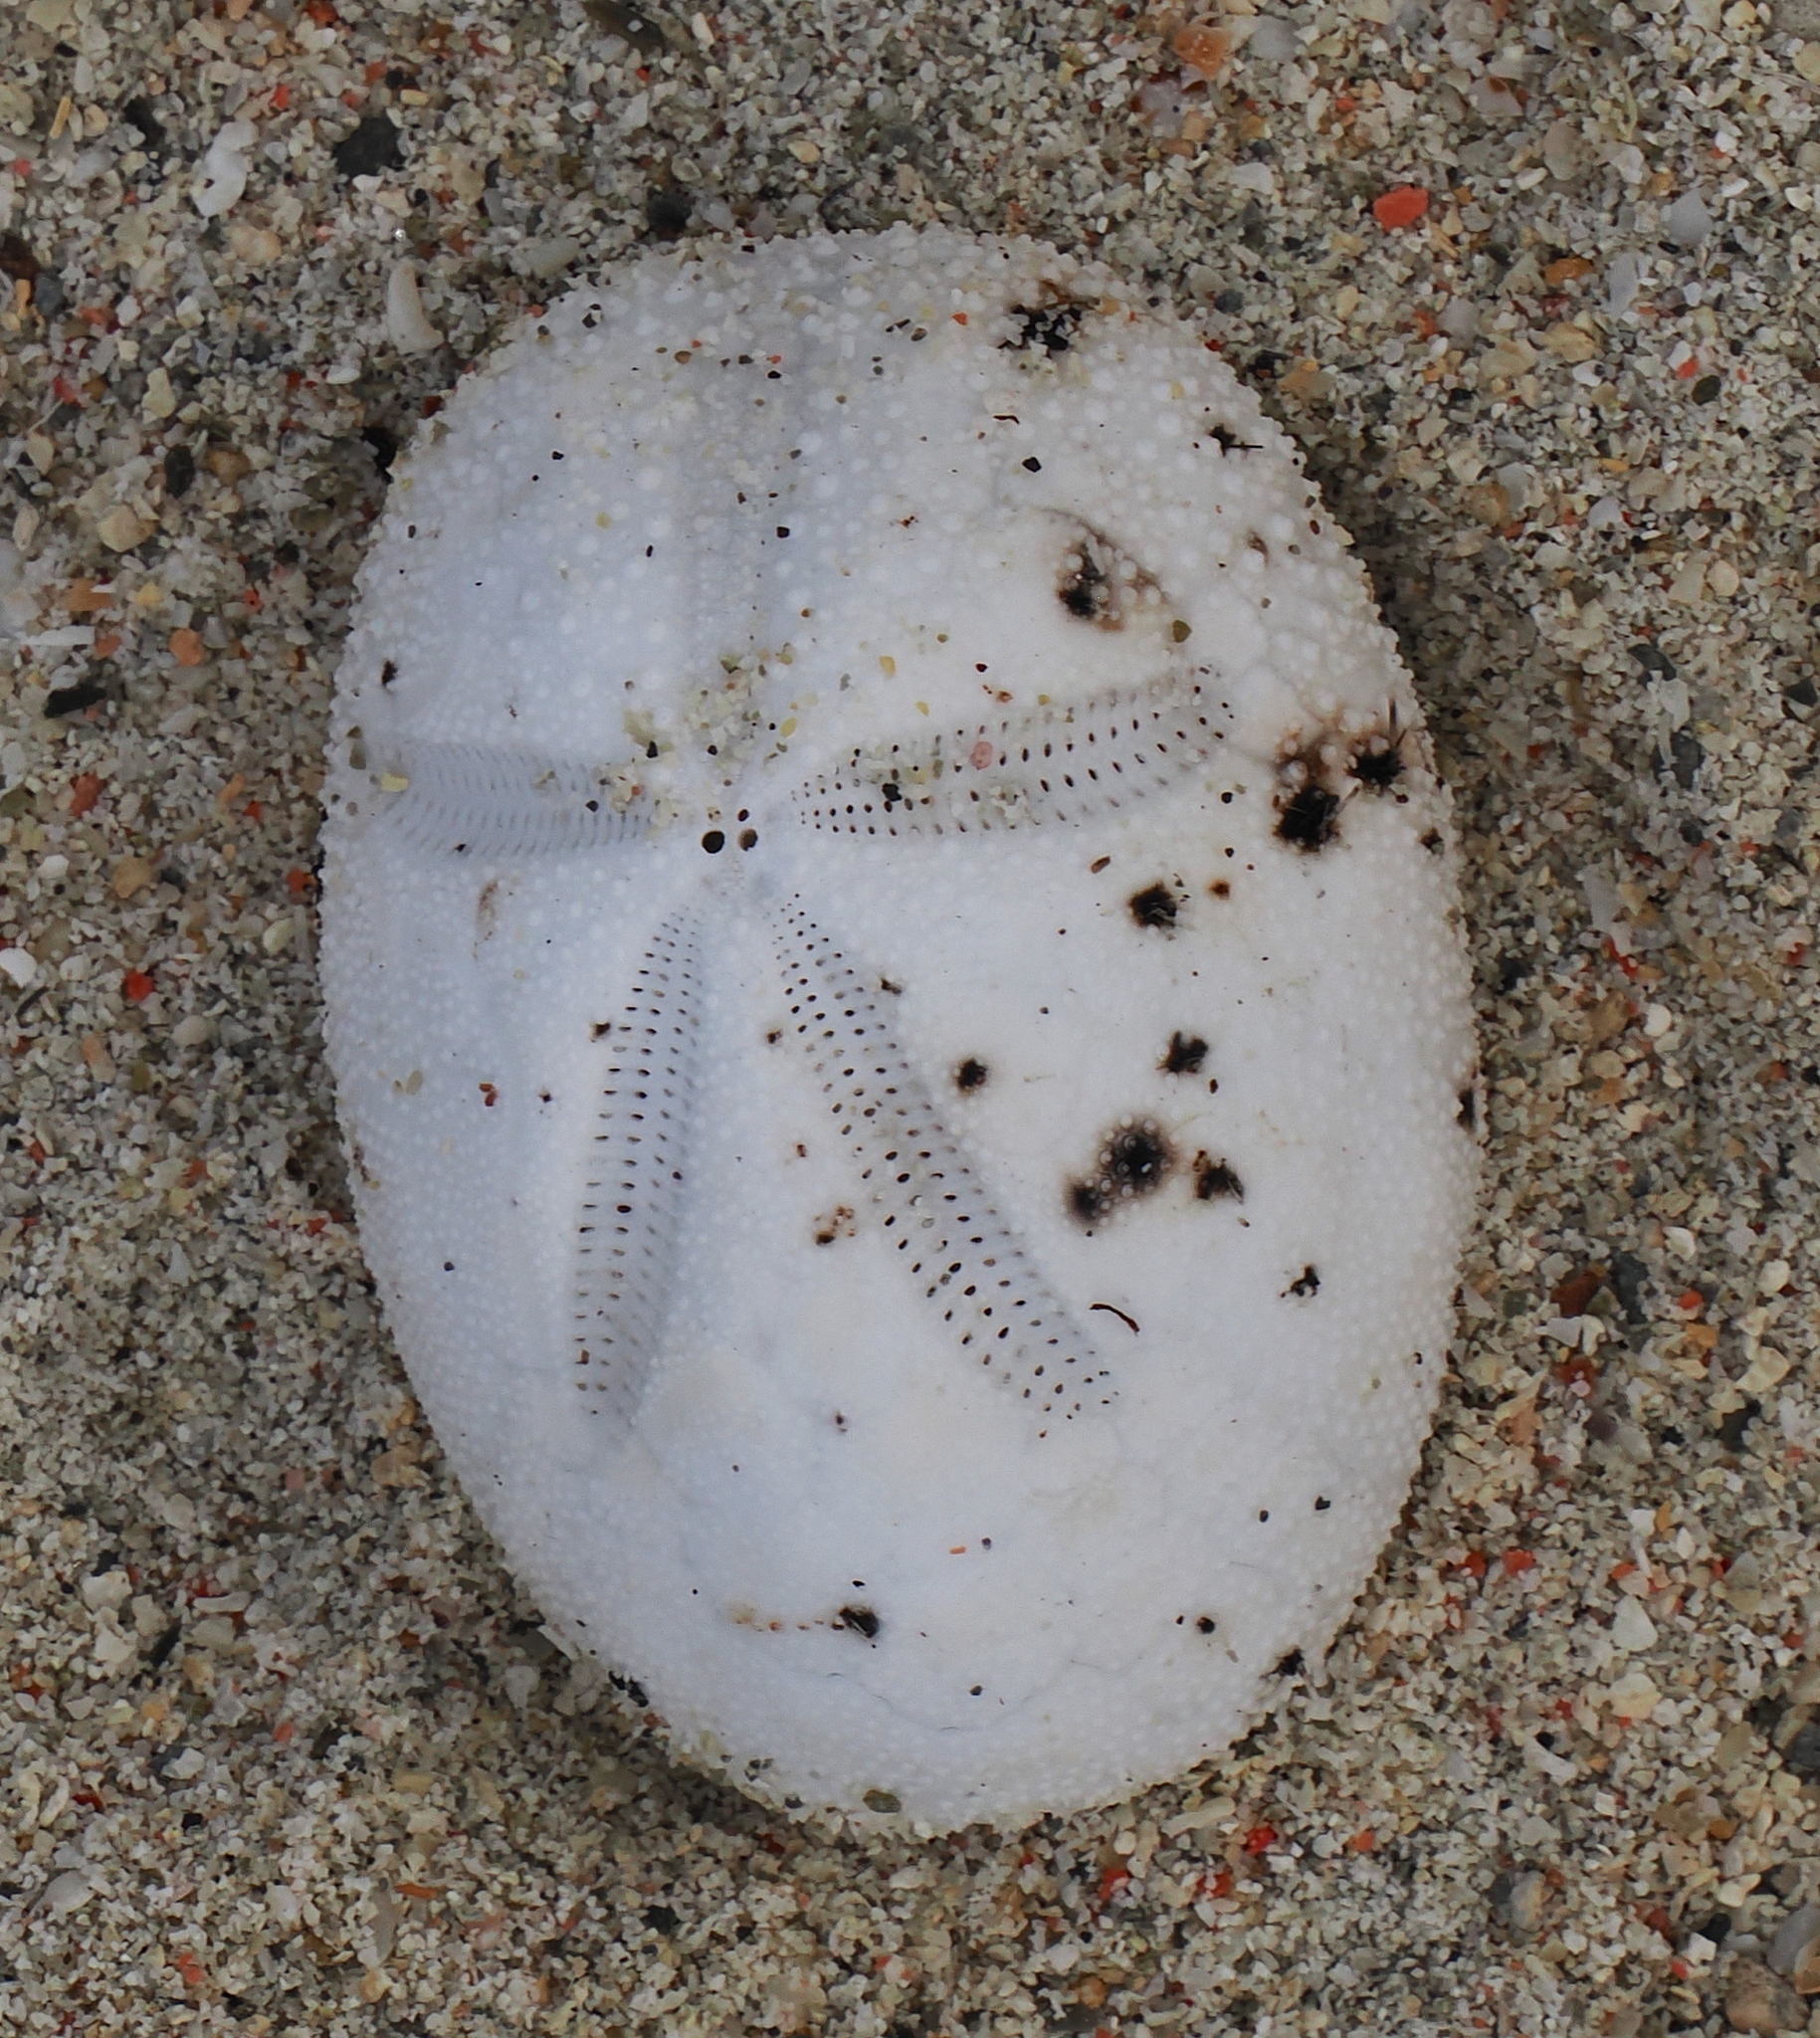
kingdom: Animalia
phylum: Echinodermata
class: Echinoidea
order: Spatangoida
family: Brissidae
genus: Brissus
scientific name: Brissus latecarinatus
